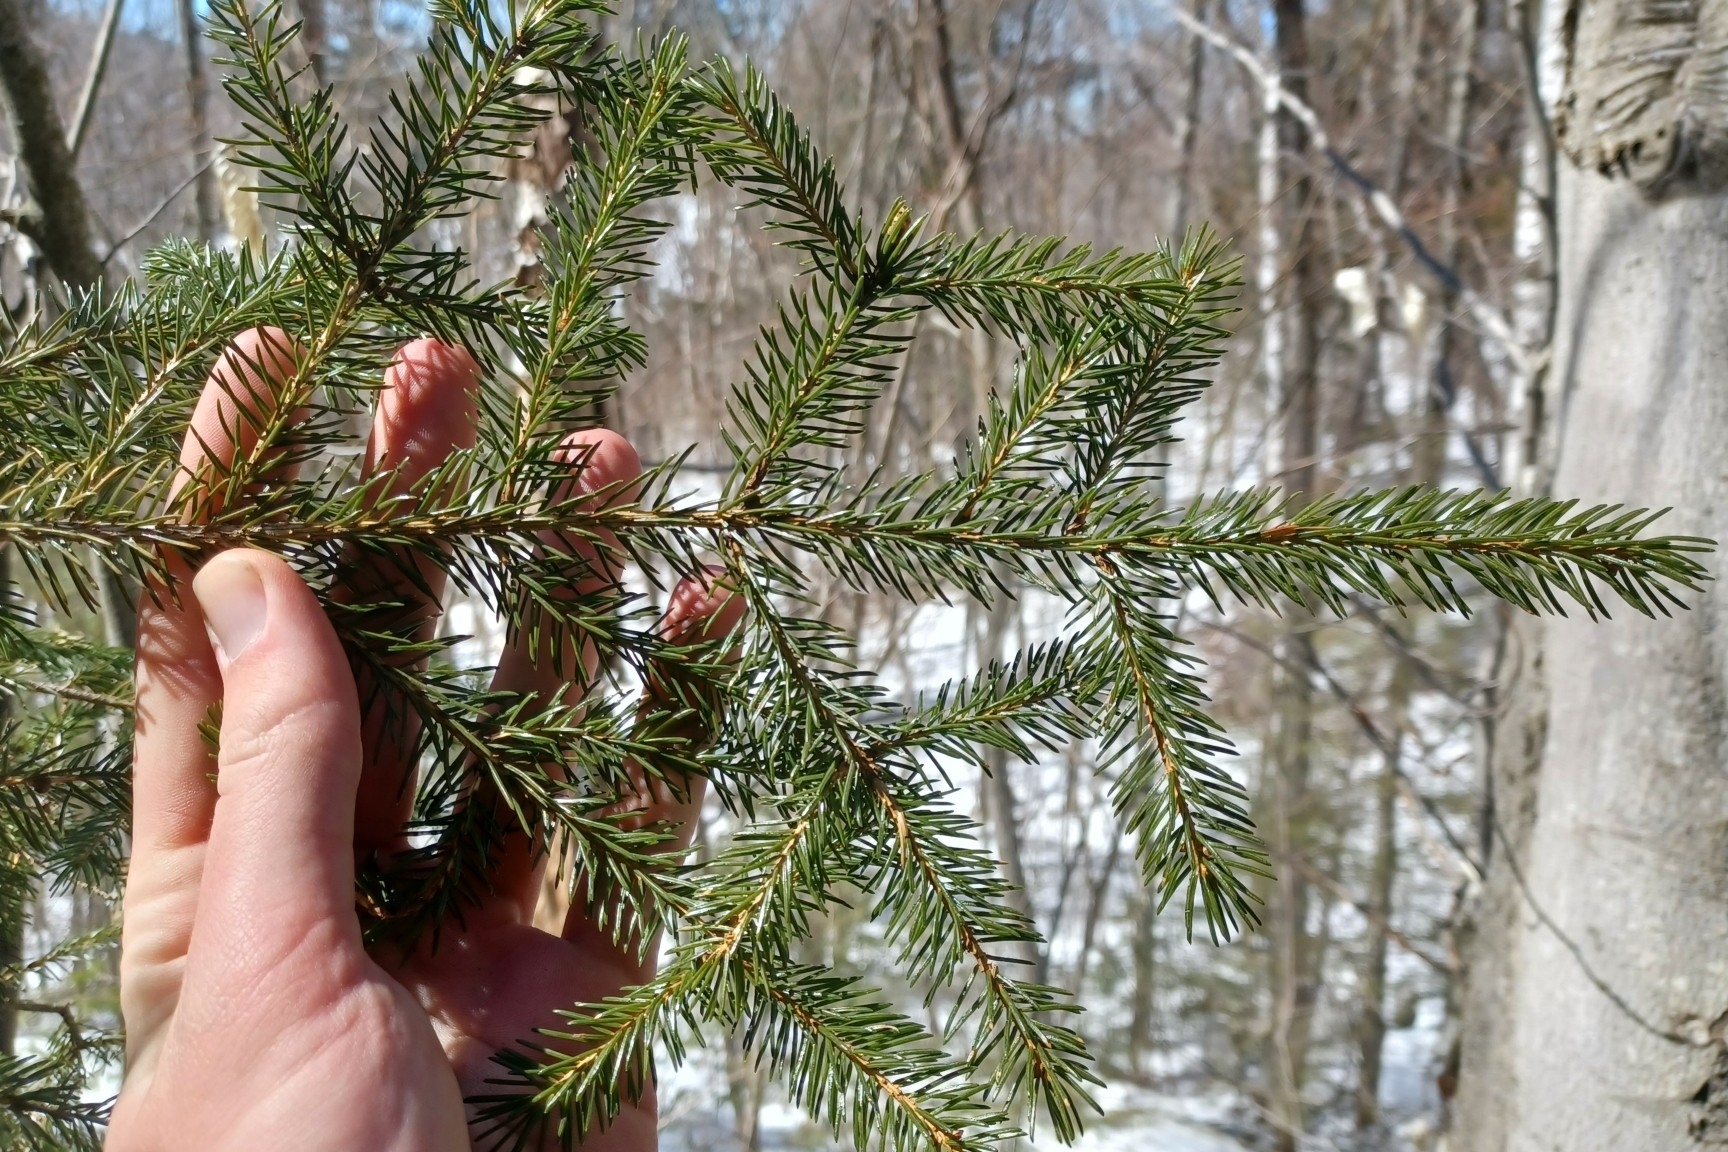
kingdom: Plantae
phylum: Tracheophyta
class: Pinopsida
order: Pinales
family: Pinaceae
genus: Picea
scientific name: Picea rubens
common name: Red spruce
